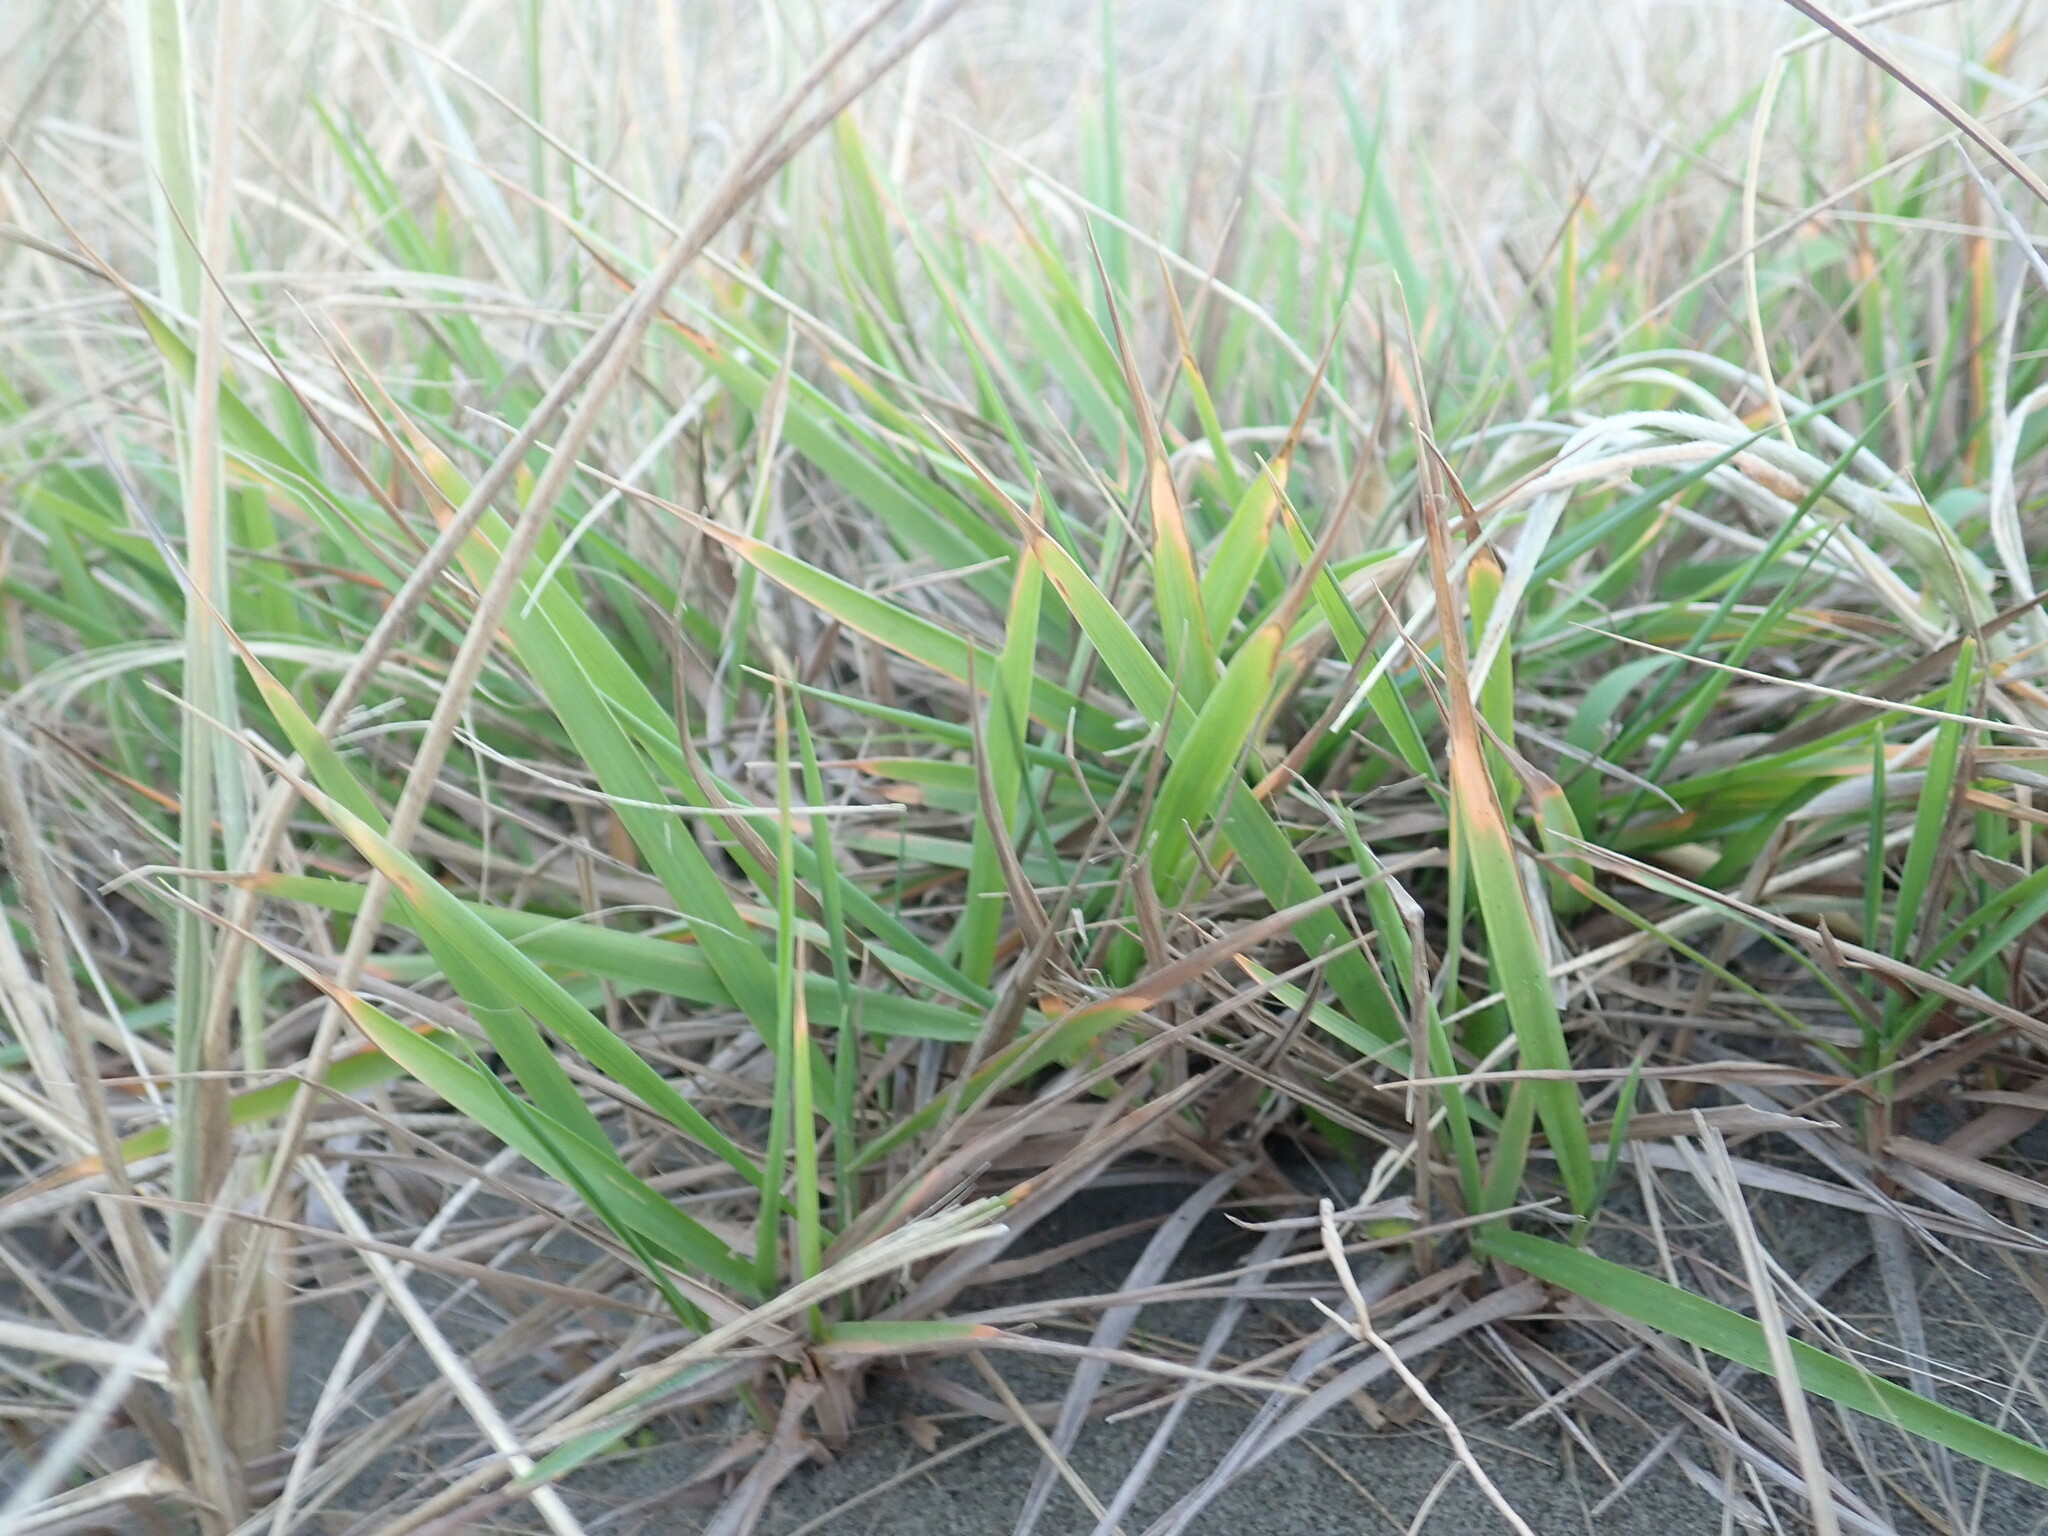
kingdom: Plantae
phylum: Tracheophyta
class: Liliopsida
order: Poales
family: Poaceae
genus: Lachnagrostis
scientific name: Lachnagrostis billardierei
